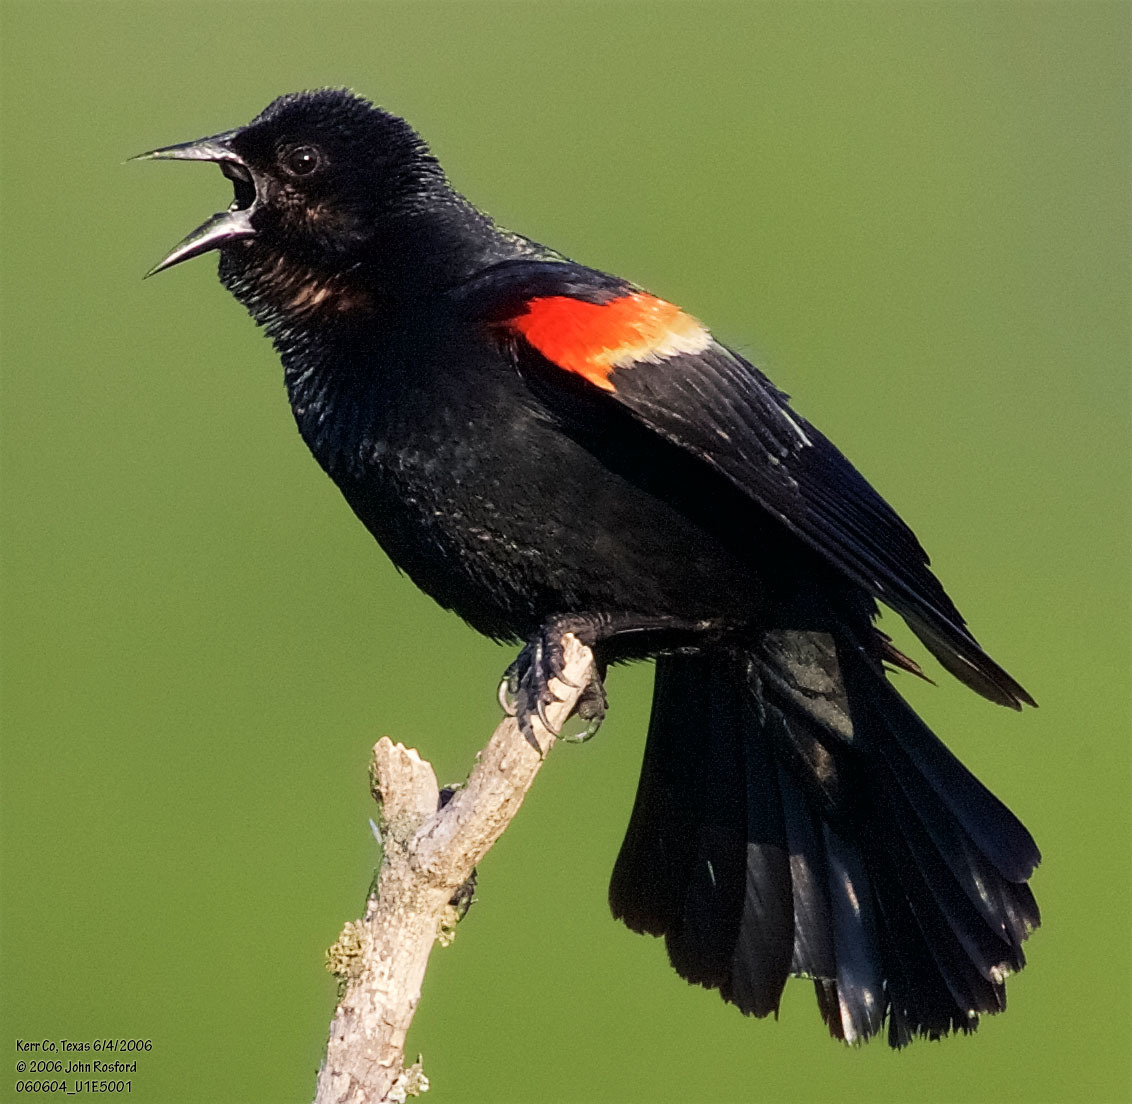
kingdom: Animalia
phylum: Chordata
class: Aves
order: Passeriformes
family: Icteridae
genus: Agelaius
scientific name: Agelaius phoeniceus
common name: Red-winged blackbird
